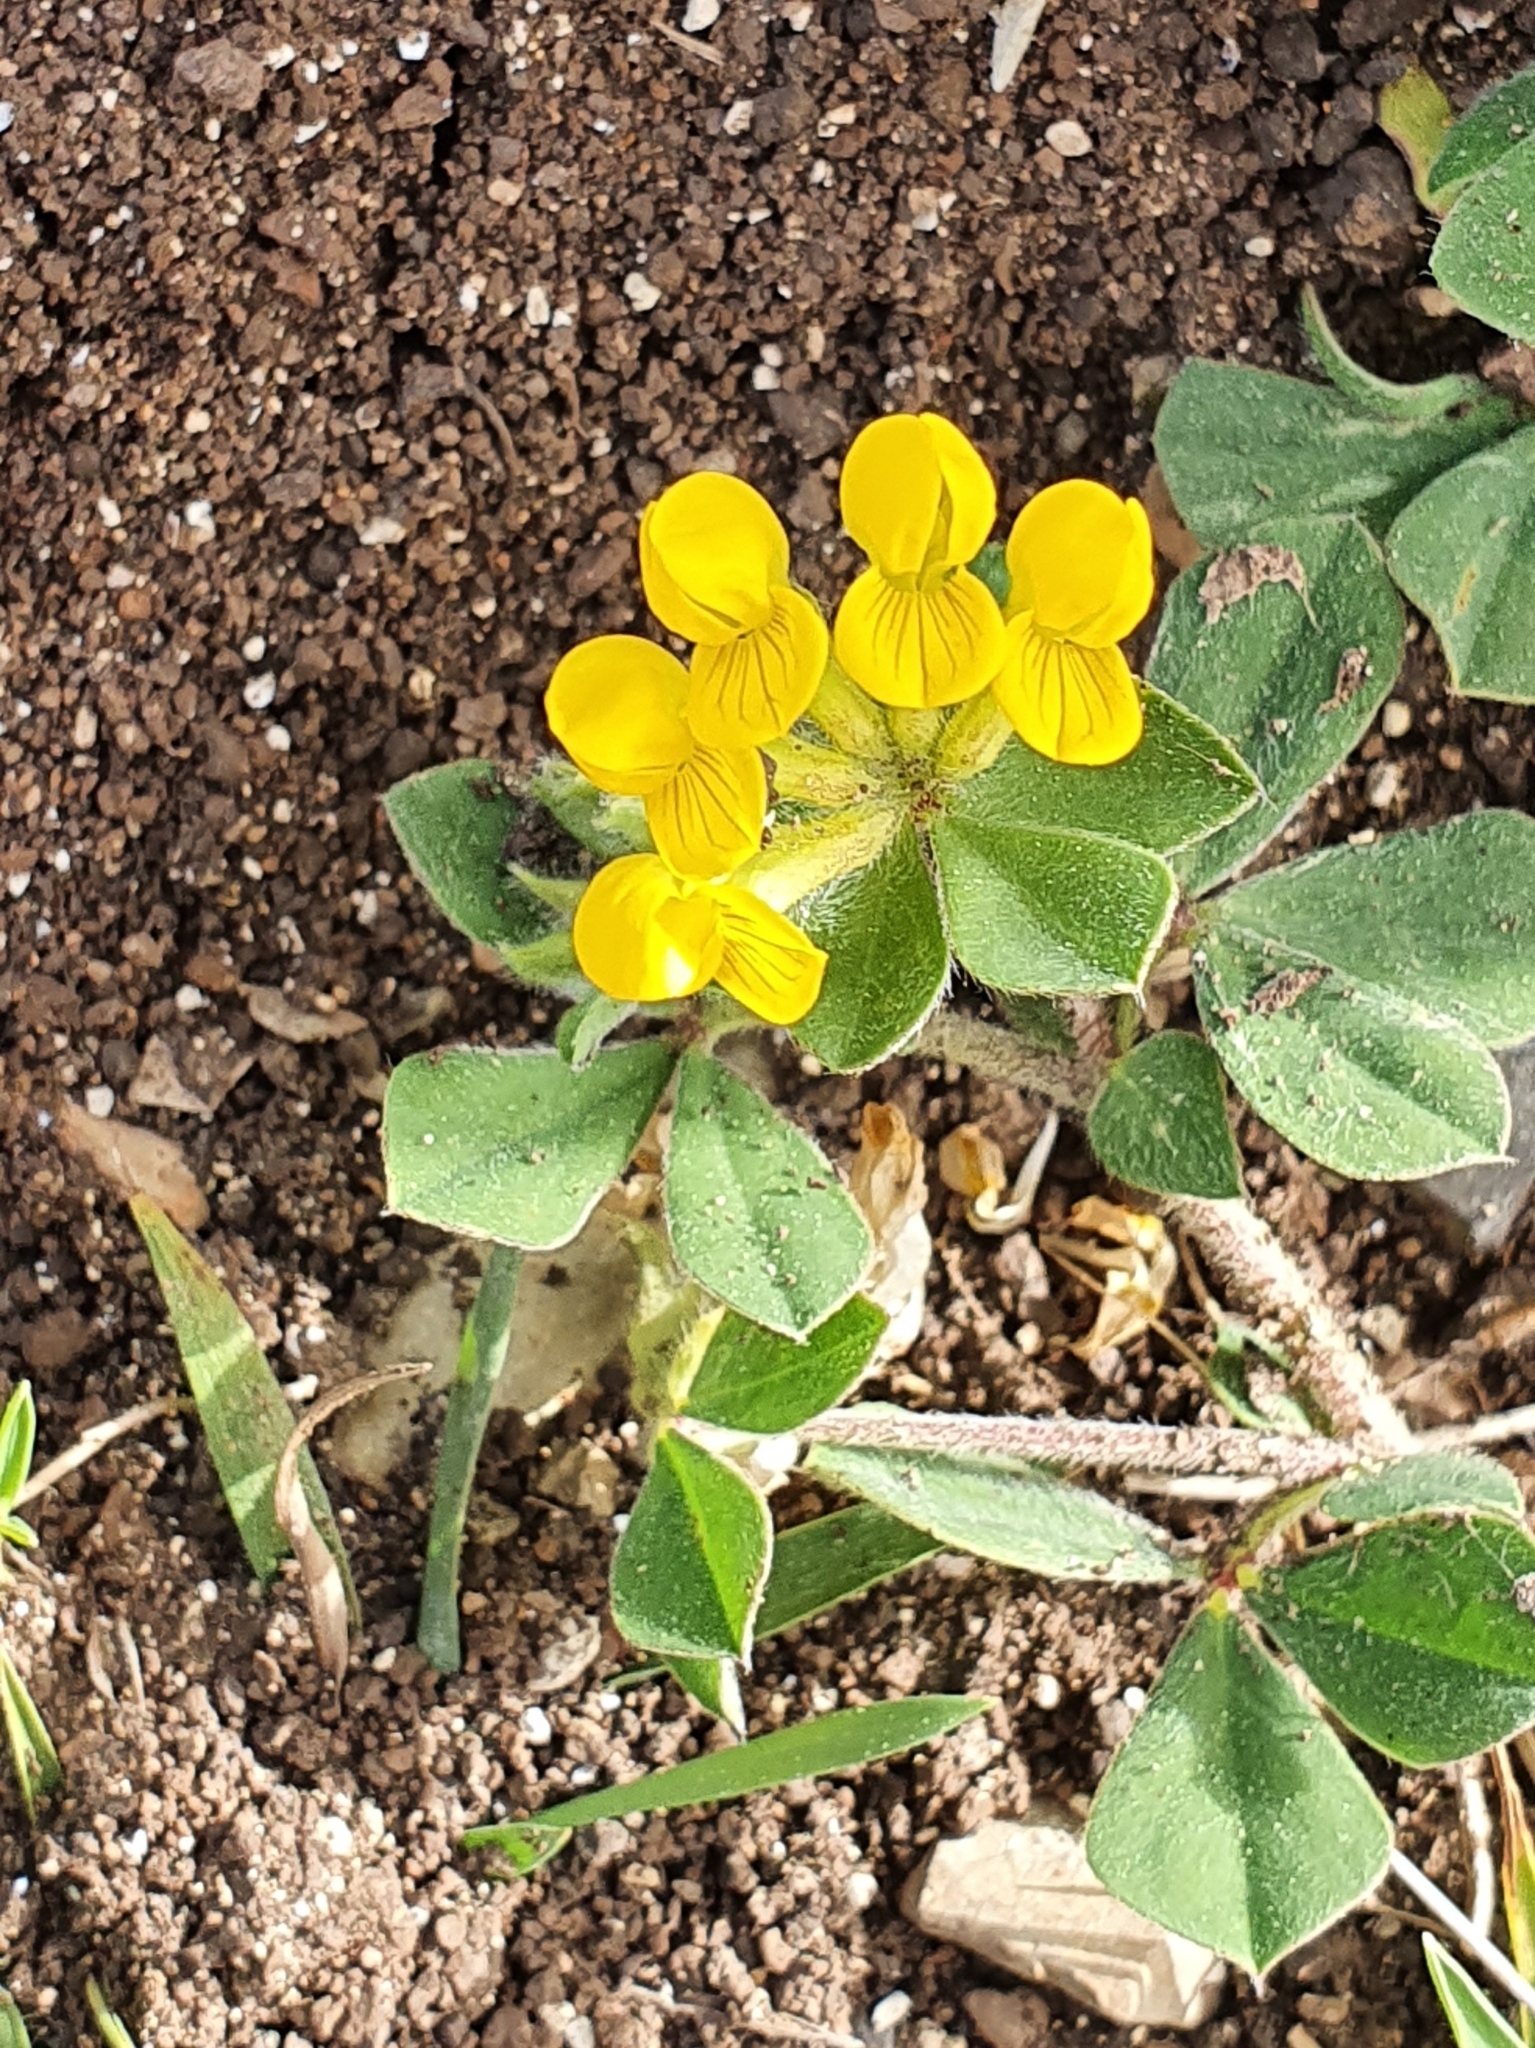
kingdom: Plantae
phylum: Tracheophyta
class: Magnoliopsida
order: Fabales
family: Fabaceae
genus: Lotus
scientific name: Lotus ornithopodioides
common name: Southern bird's-foot trefoil
